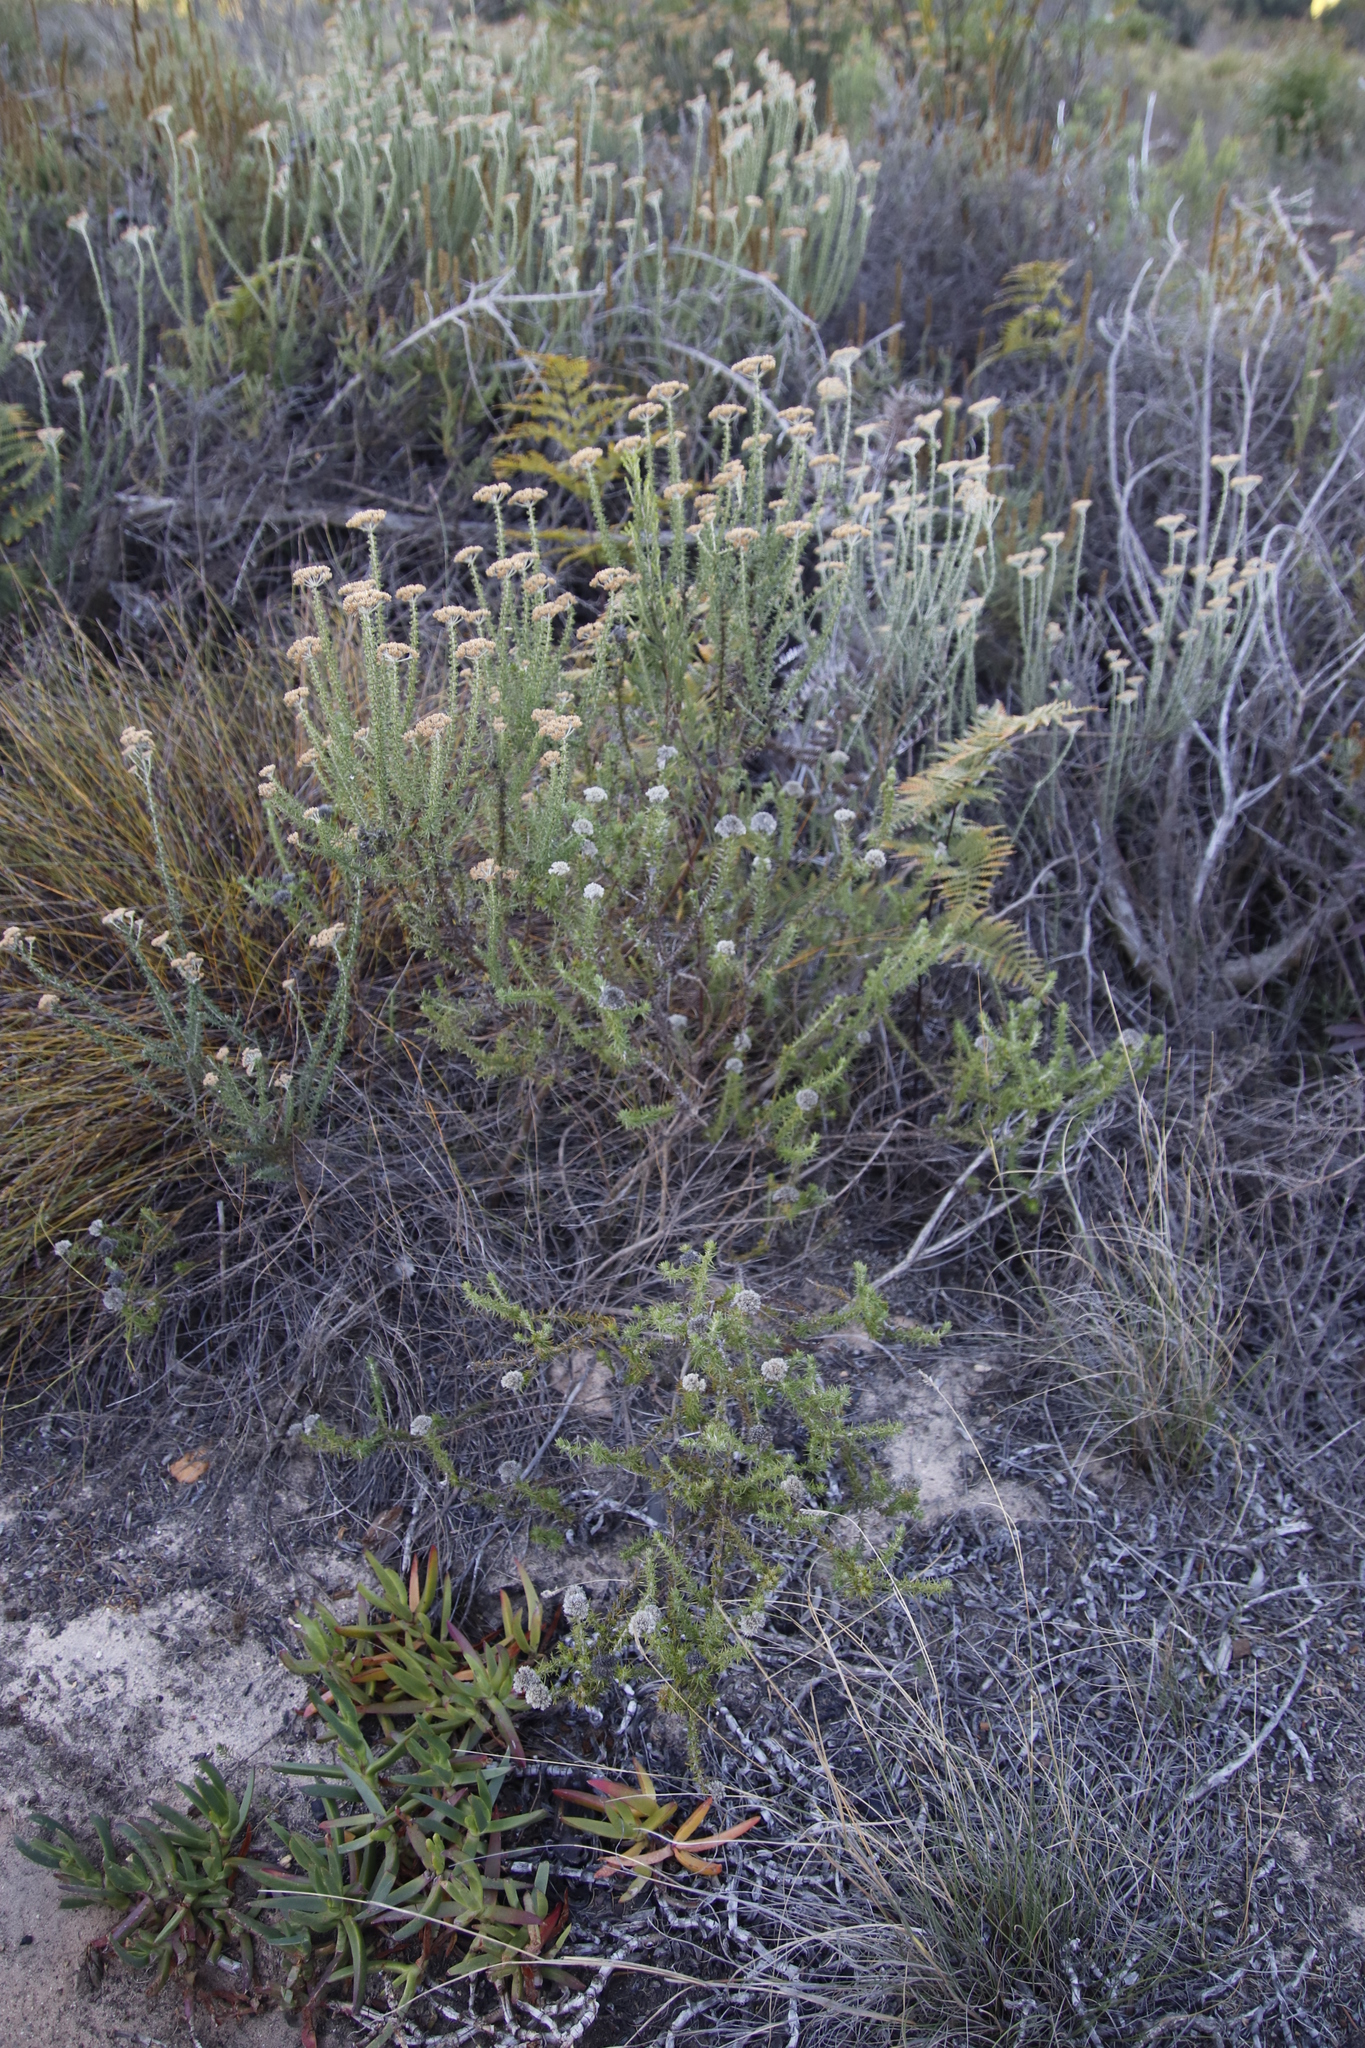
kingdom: Plantae
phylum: Tracheophyta
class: Magnoliopsida
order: Asterales
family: Asteraceae
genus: Metalasia
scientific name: Metalasia pulchella
